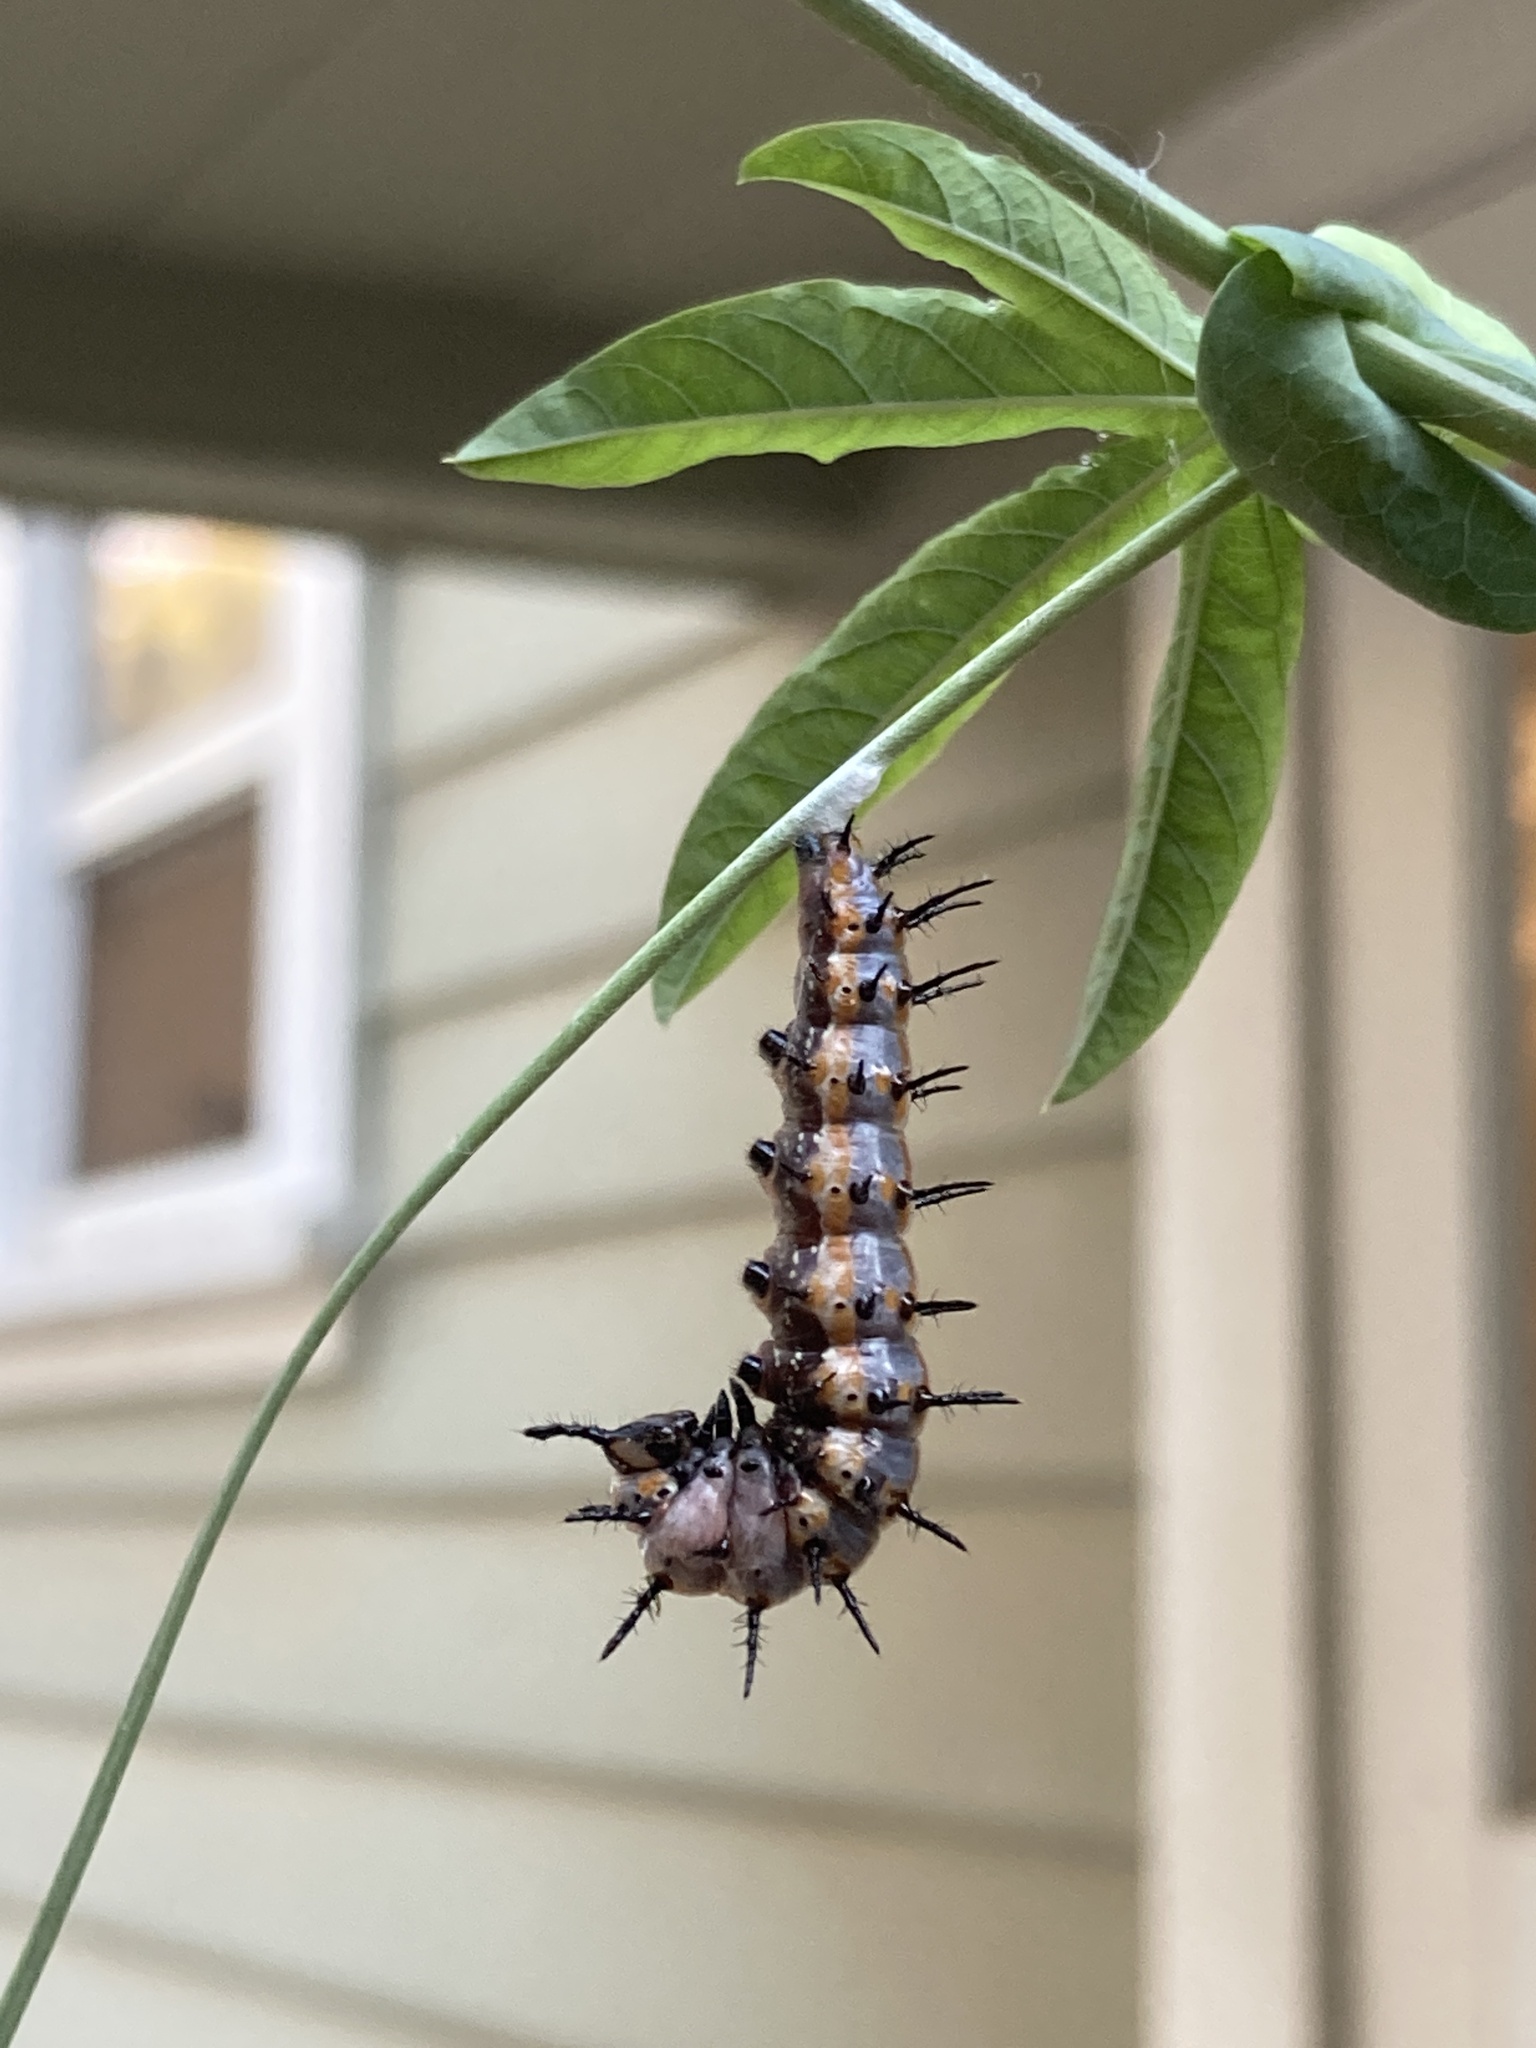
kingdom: Animalia
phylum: Arthropoda
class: Insecta
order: Lepidoptera
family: Nymphalidae
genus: Dione
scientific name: Dione vanillae
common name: Gulf fritillary
